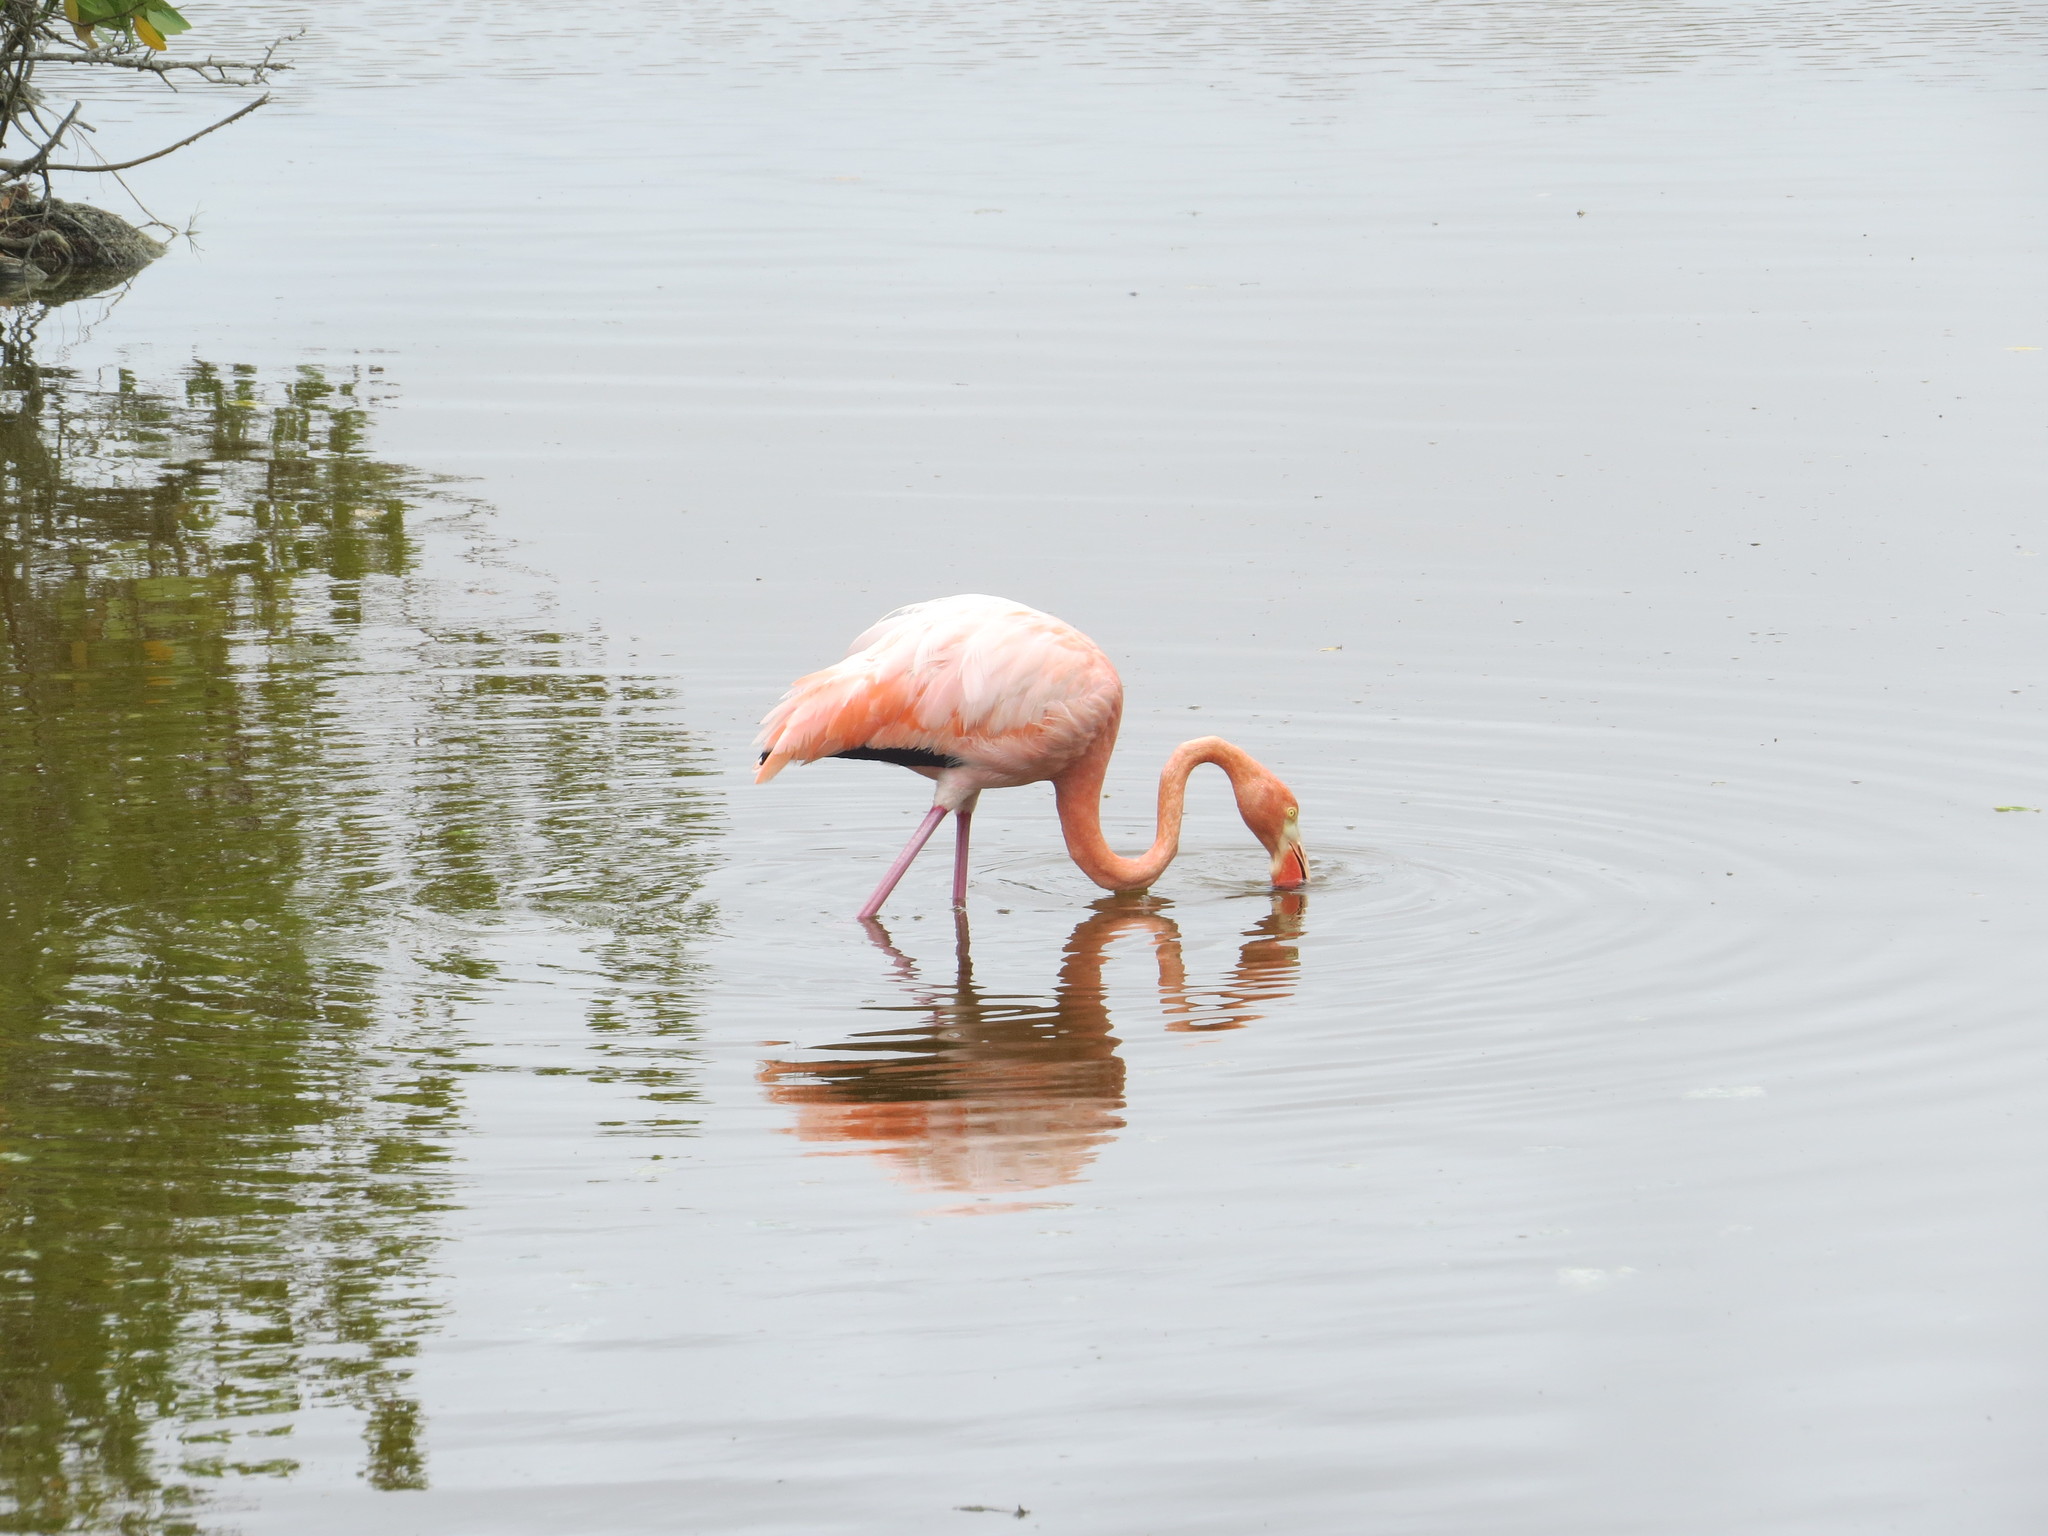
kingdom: Animalia
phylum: Chordata
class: Aves
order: Phoenicopteriformes
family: Phoenicopteridae
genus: Phoenicopterus
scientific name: Phoenicopterus ruber
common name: American flamingo
